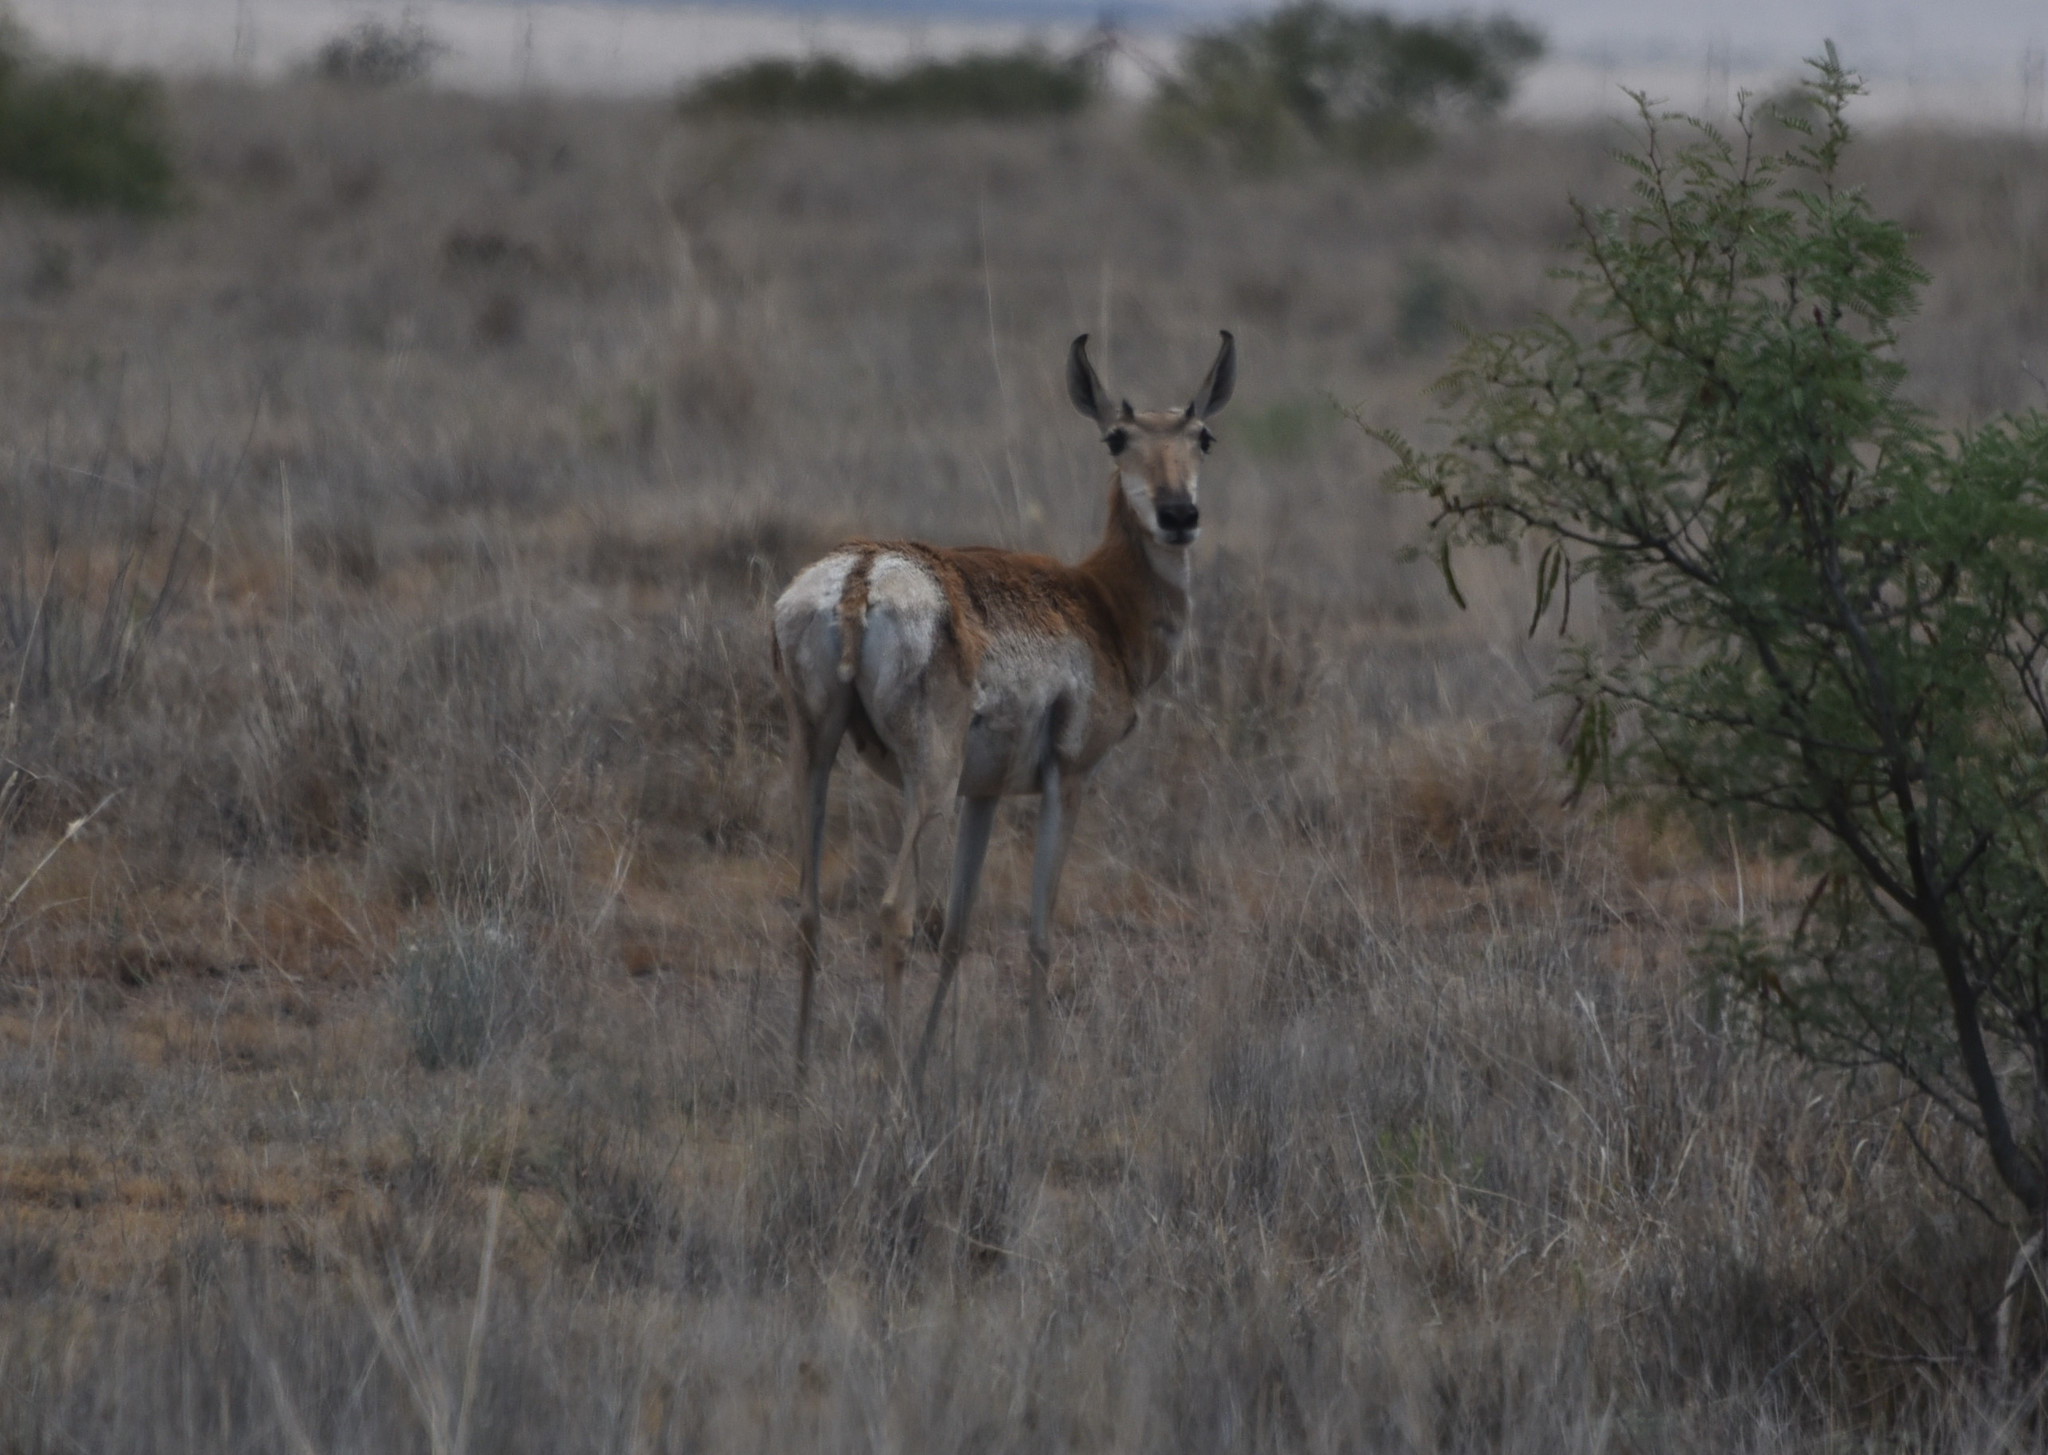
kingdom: Animalia
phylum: Chordata
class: Mammalia
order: Artiodactyla
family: Antilocapridae
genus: Antilocapra
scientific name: Antilocapra americana
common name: Pronghorn
